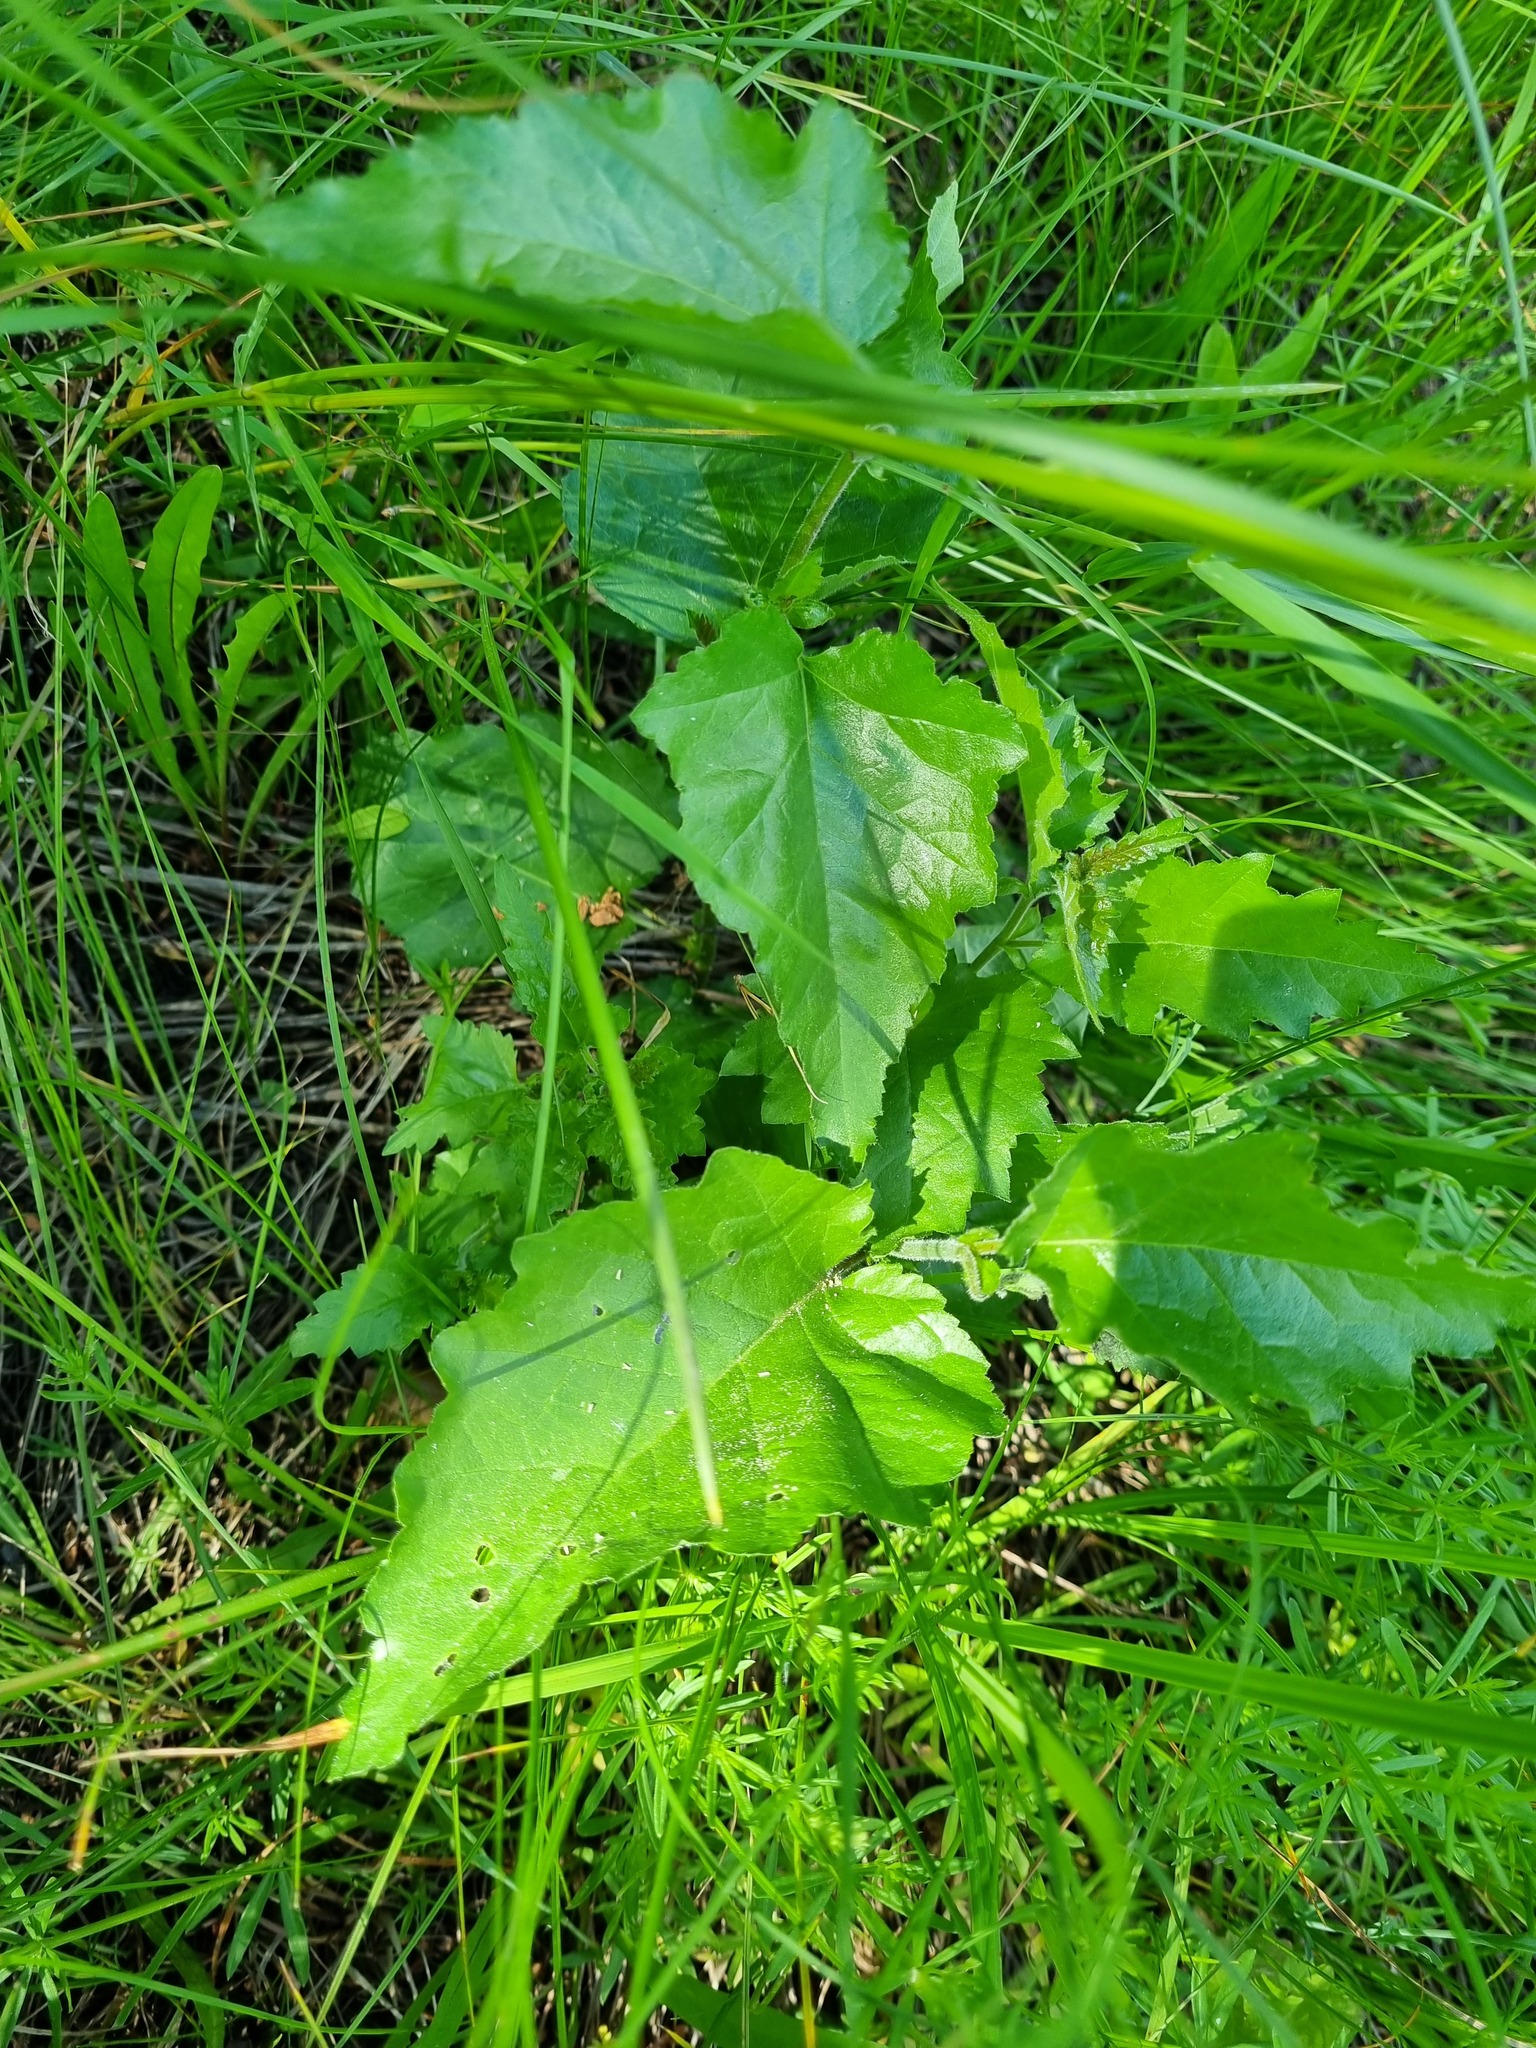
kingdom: Plantae
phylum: Tracheophyta
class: Magnoliopsida
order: Fagales
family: Betulaceae
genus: Betula
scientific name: Betula pubescens
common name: Downy birch
